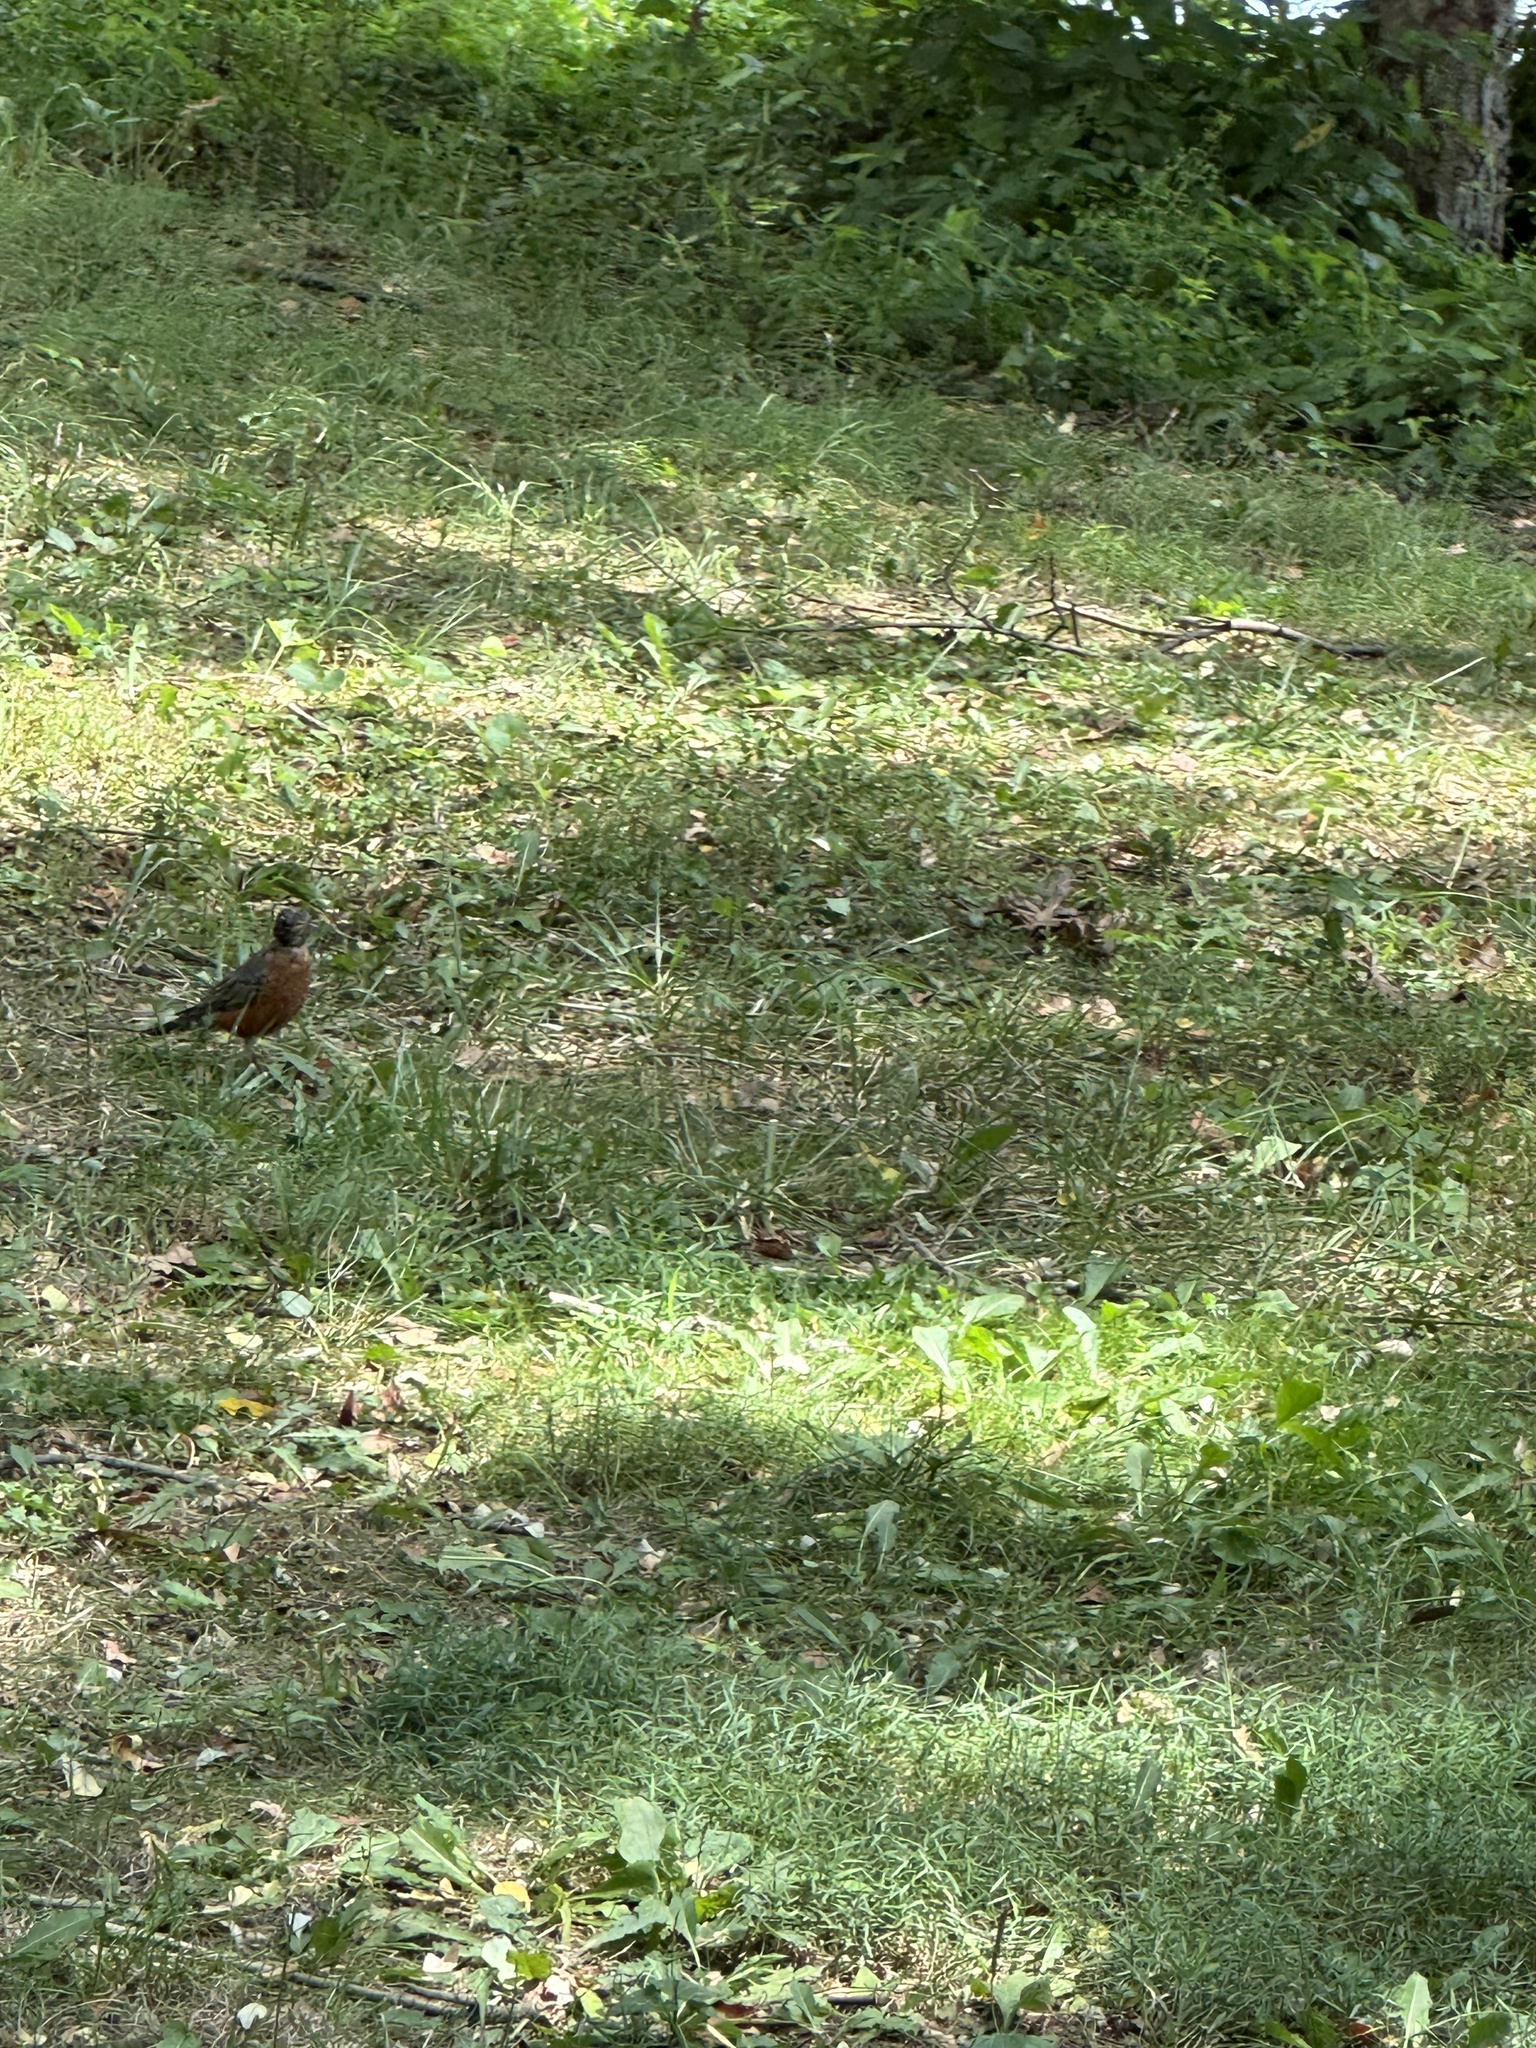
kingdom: Animalia
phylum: Chordata
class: Aves
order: Passeriformes
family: Turdidae
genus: Turdus
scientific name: Turdus migratorius
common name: American robin
